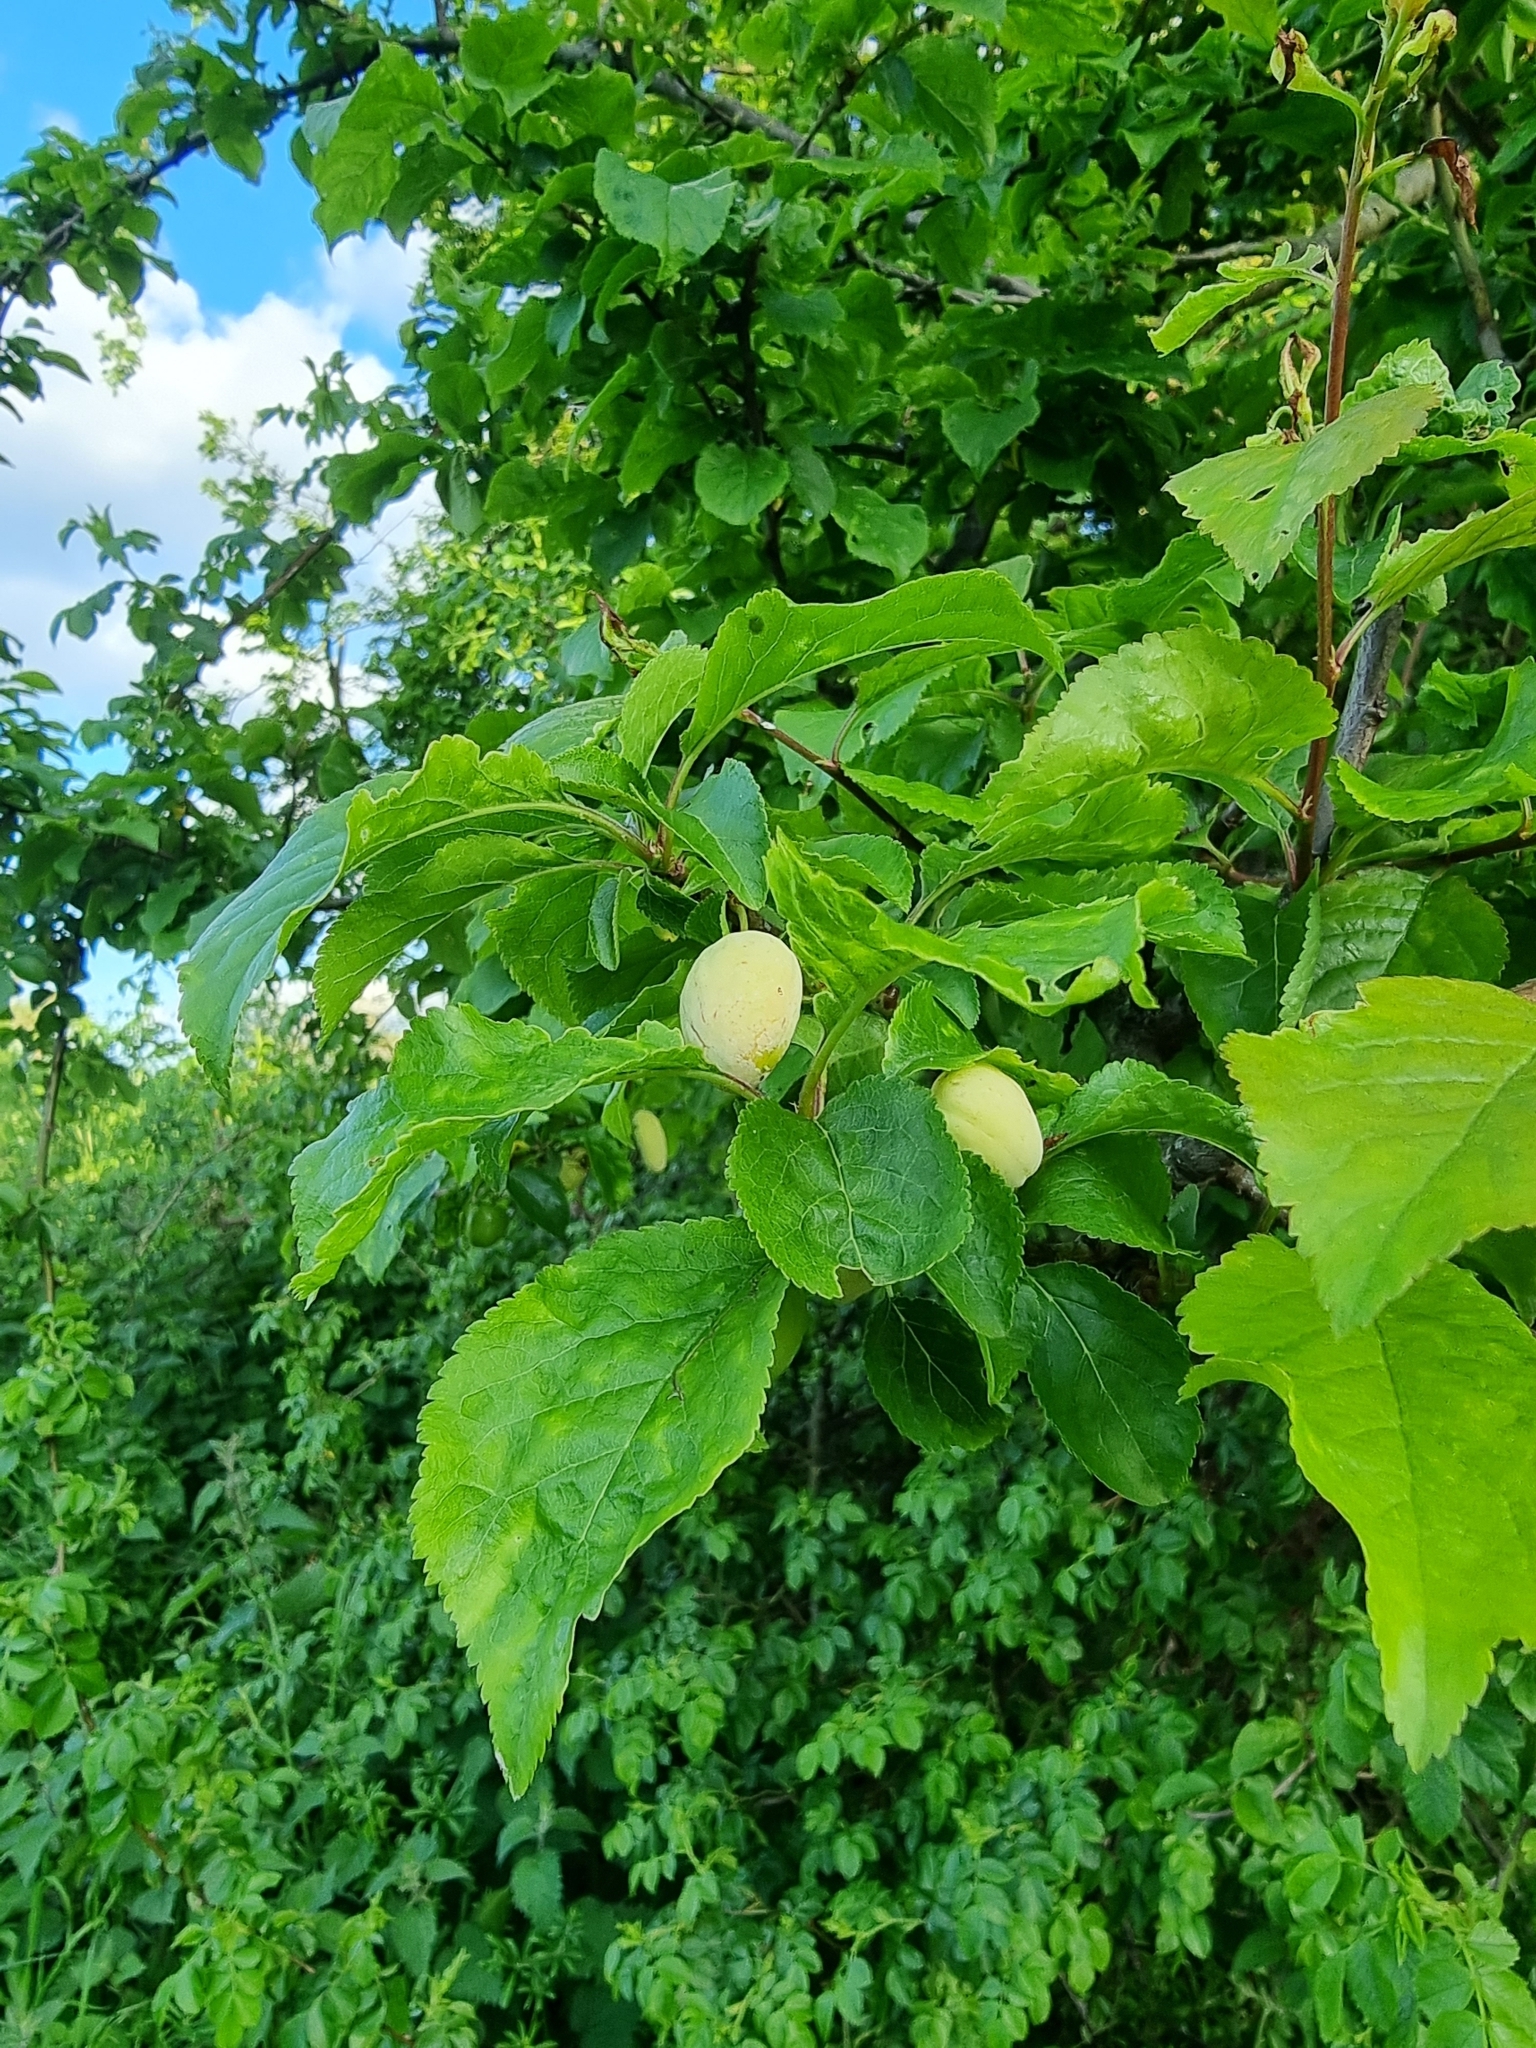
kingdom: Fungi
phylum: Ascomycota
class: Taphrinomycetes
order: Taphrinales
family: Taphrinaceae
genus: Taphrina
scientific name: Taphrina pruni
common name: Pocket plum
